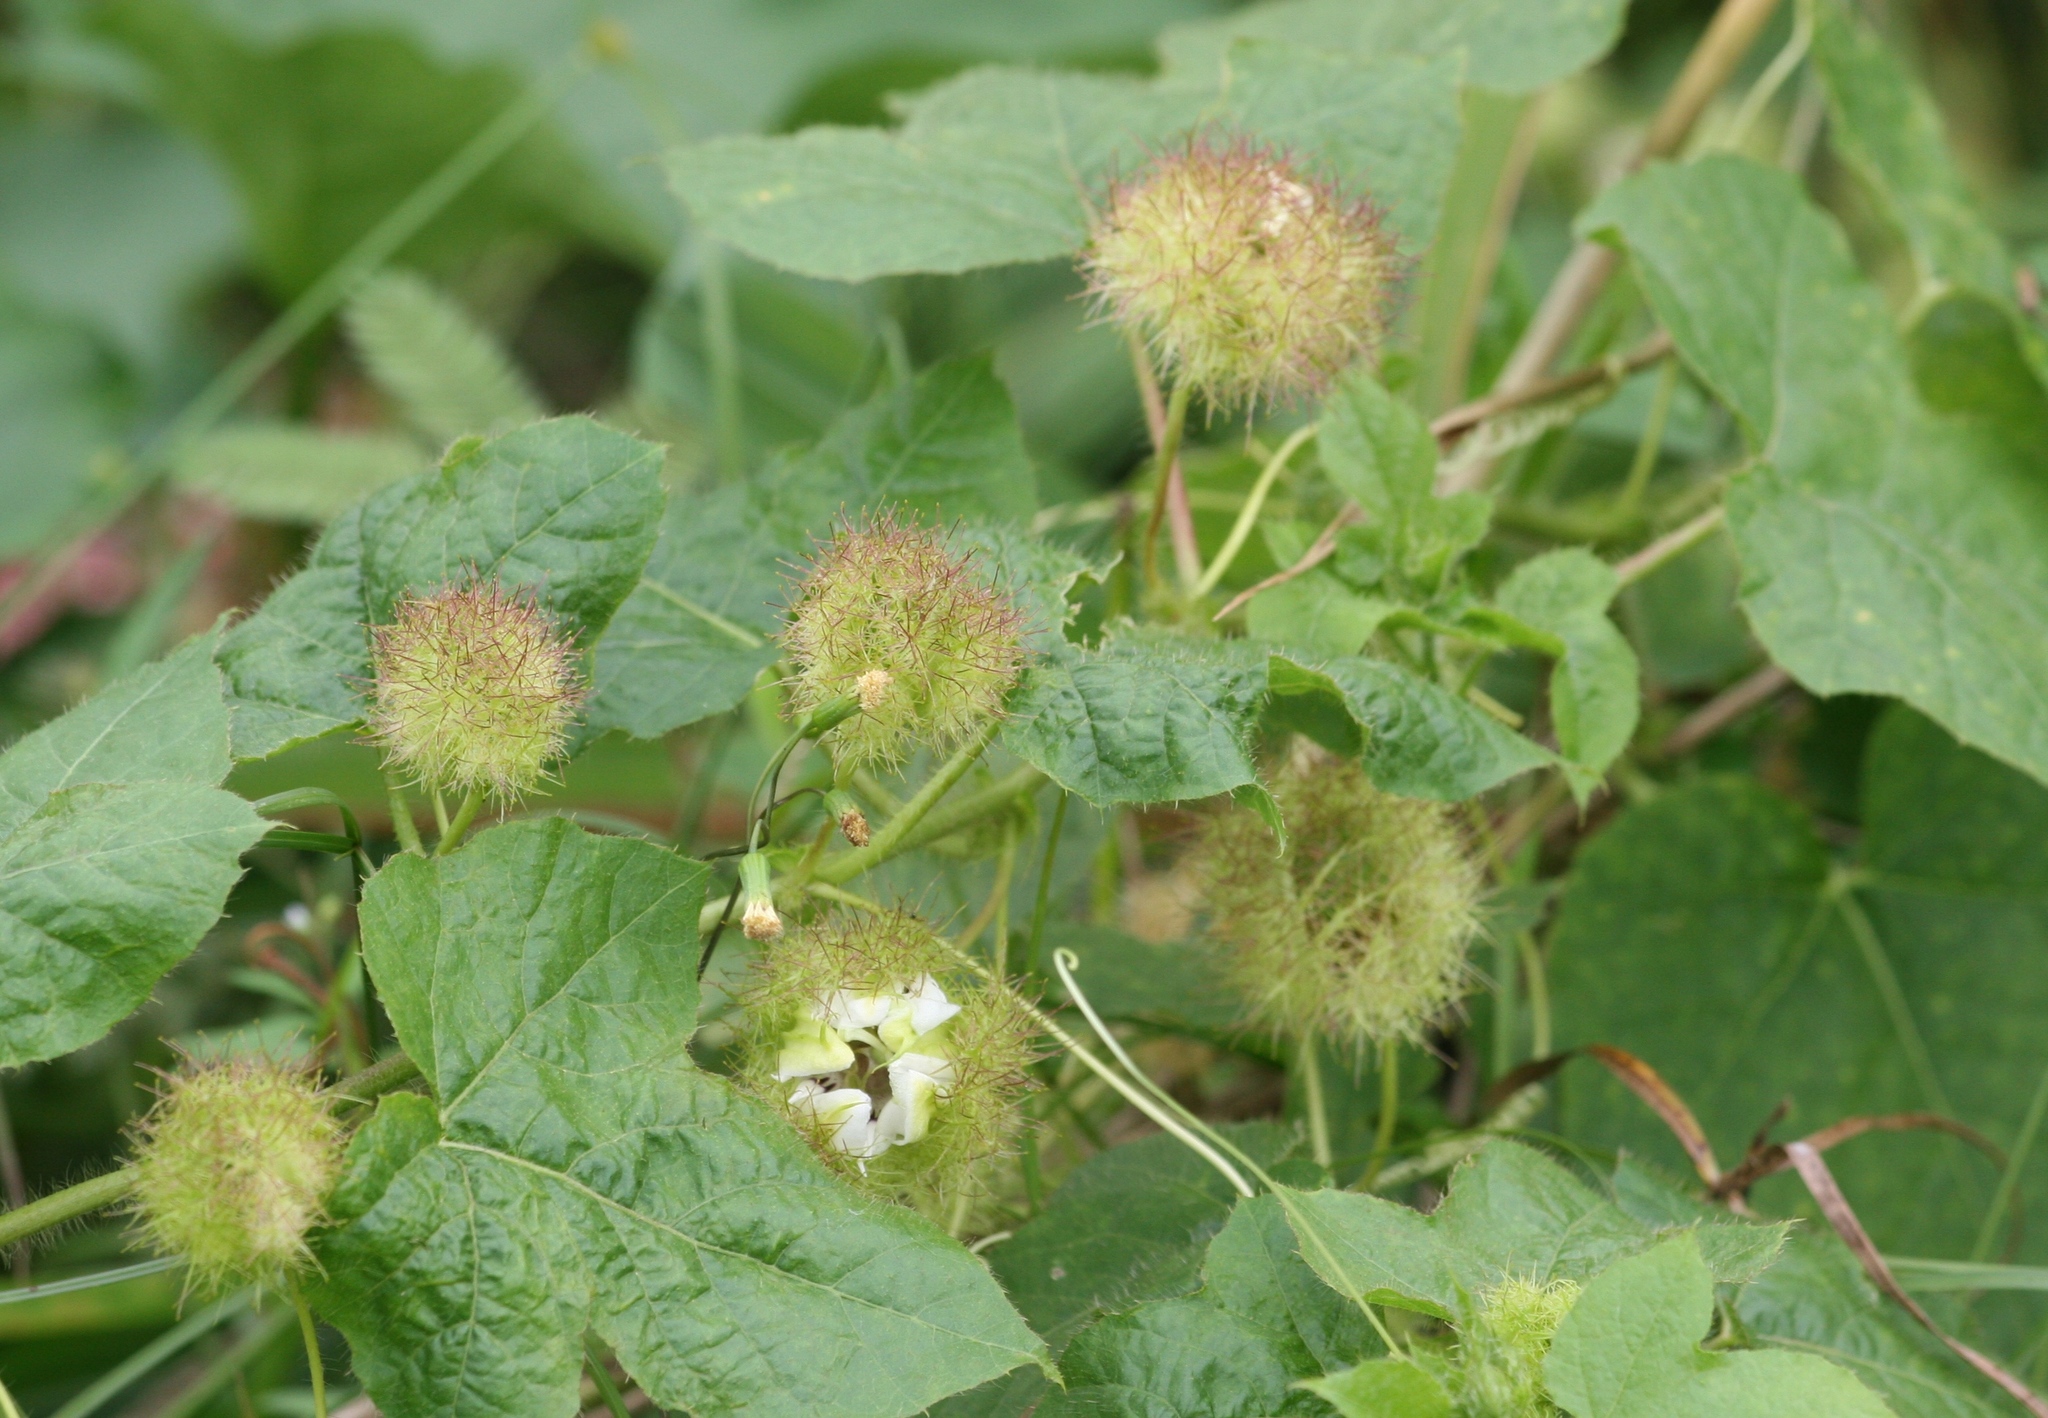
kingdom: Plantae
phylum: Tracheophyta
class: Magnoliopsida
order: Malpighiales
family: Passifloraceae
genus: Passiflora
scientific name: Passiflora foetida
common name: Fetid passionflower
